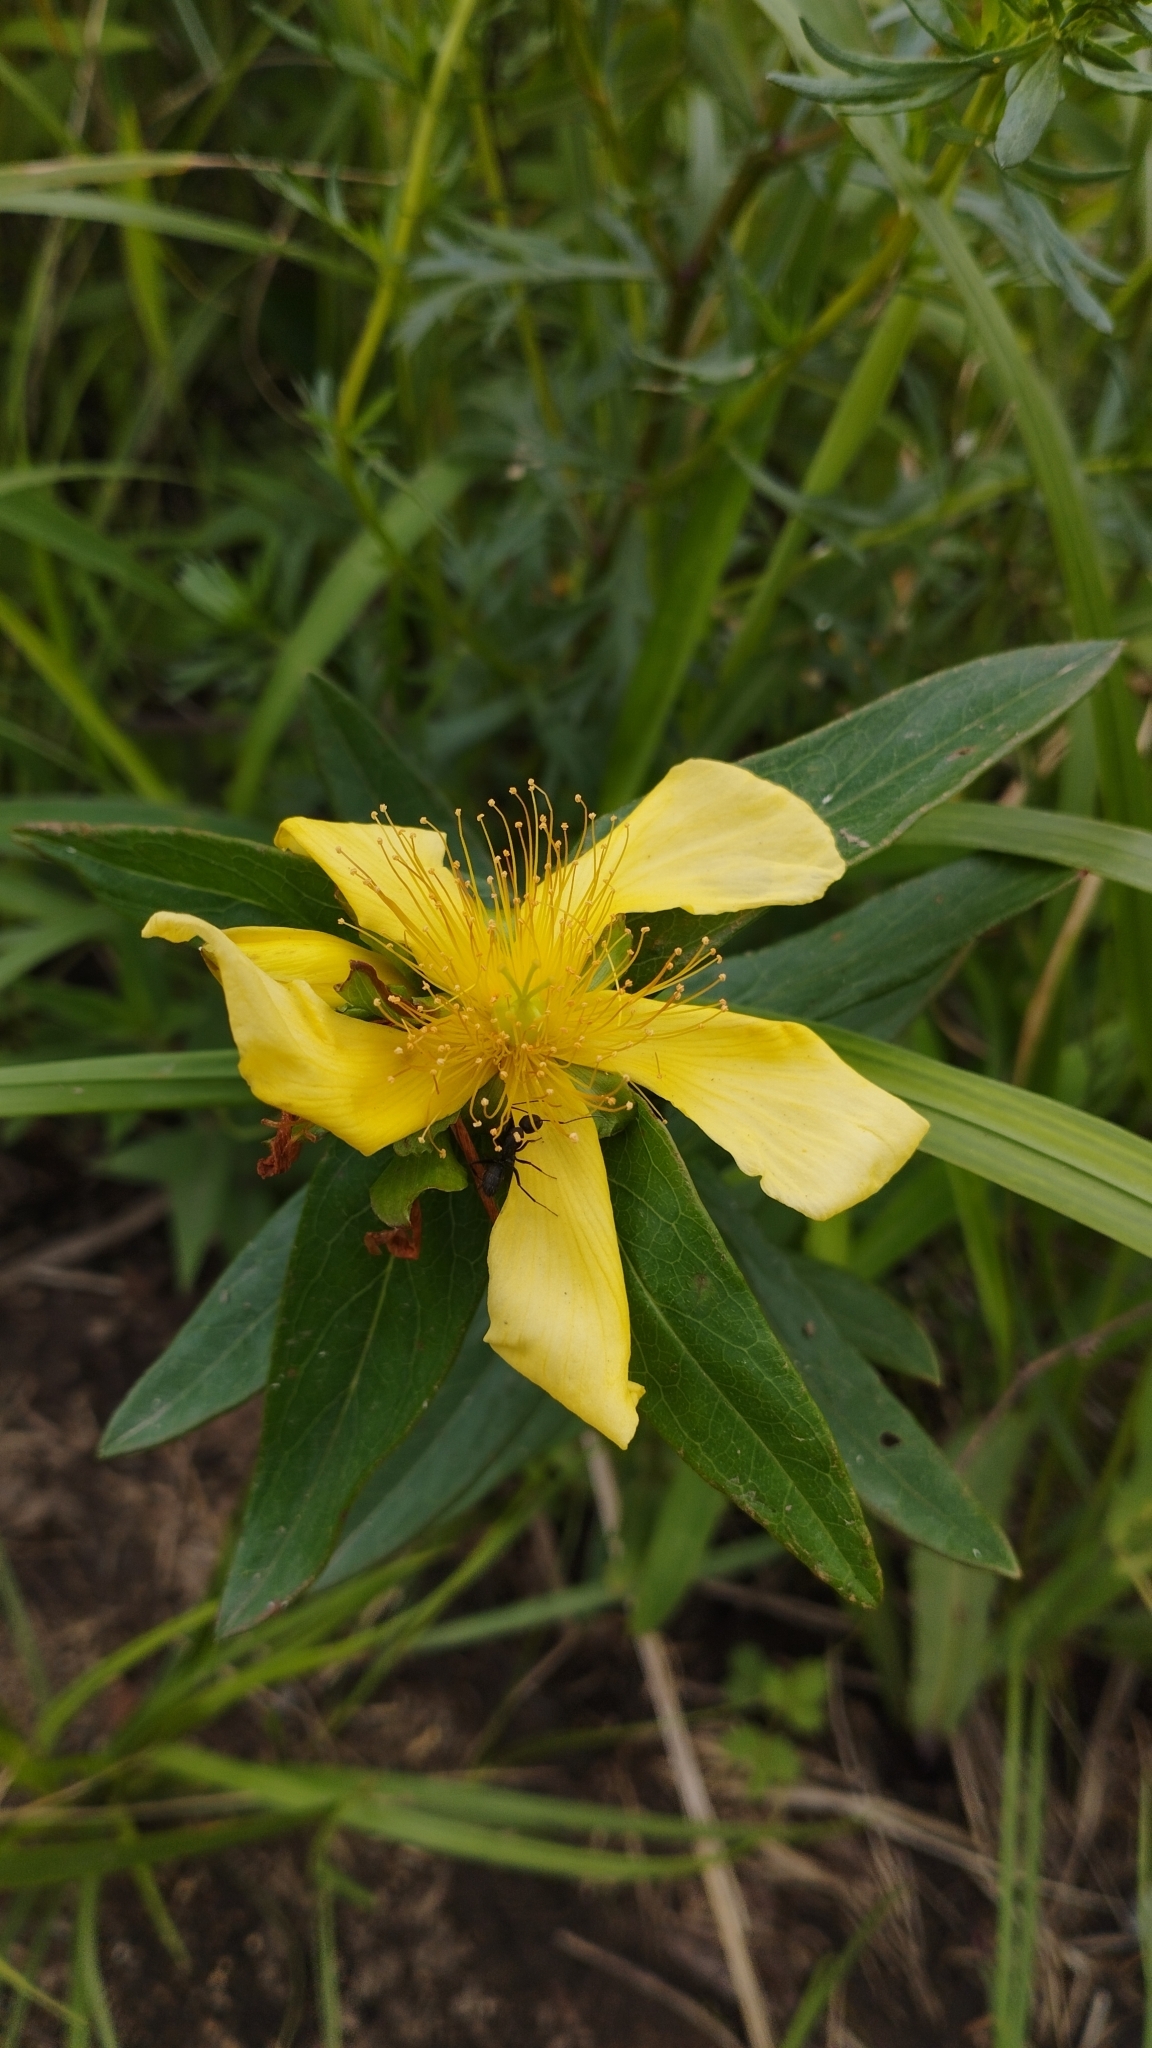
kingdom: Plantae
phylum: Tracheophyta
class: Magnoliopsida
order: Malpighiales
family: Hypericaceae
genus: Hypericum
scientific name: Hypericum ascyron
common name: Giant st. john's-wort
